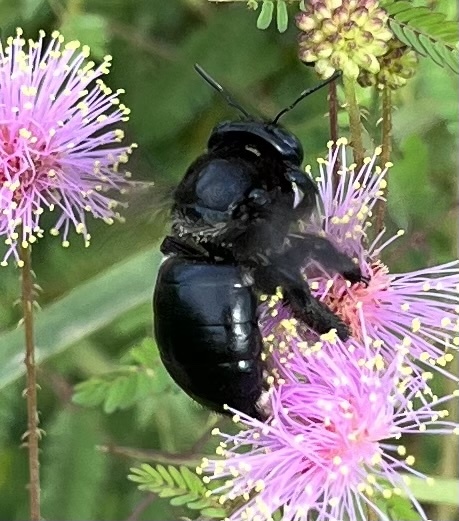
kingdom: Animalia
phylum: Arthropoda
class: Insecta
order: Hymenoptera
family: Apidae
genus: Xylocopa
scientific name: Xylocopa micans
